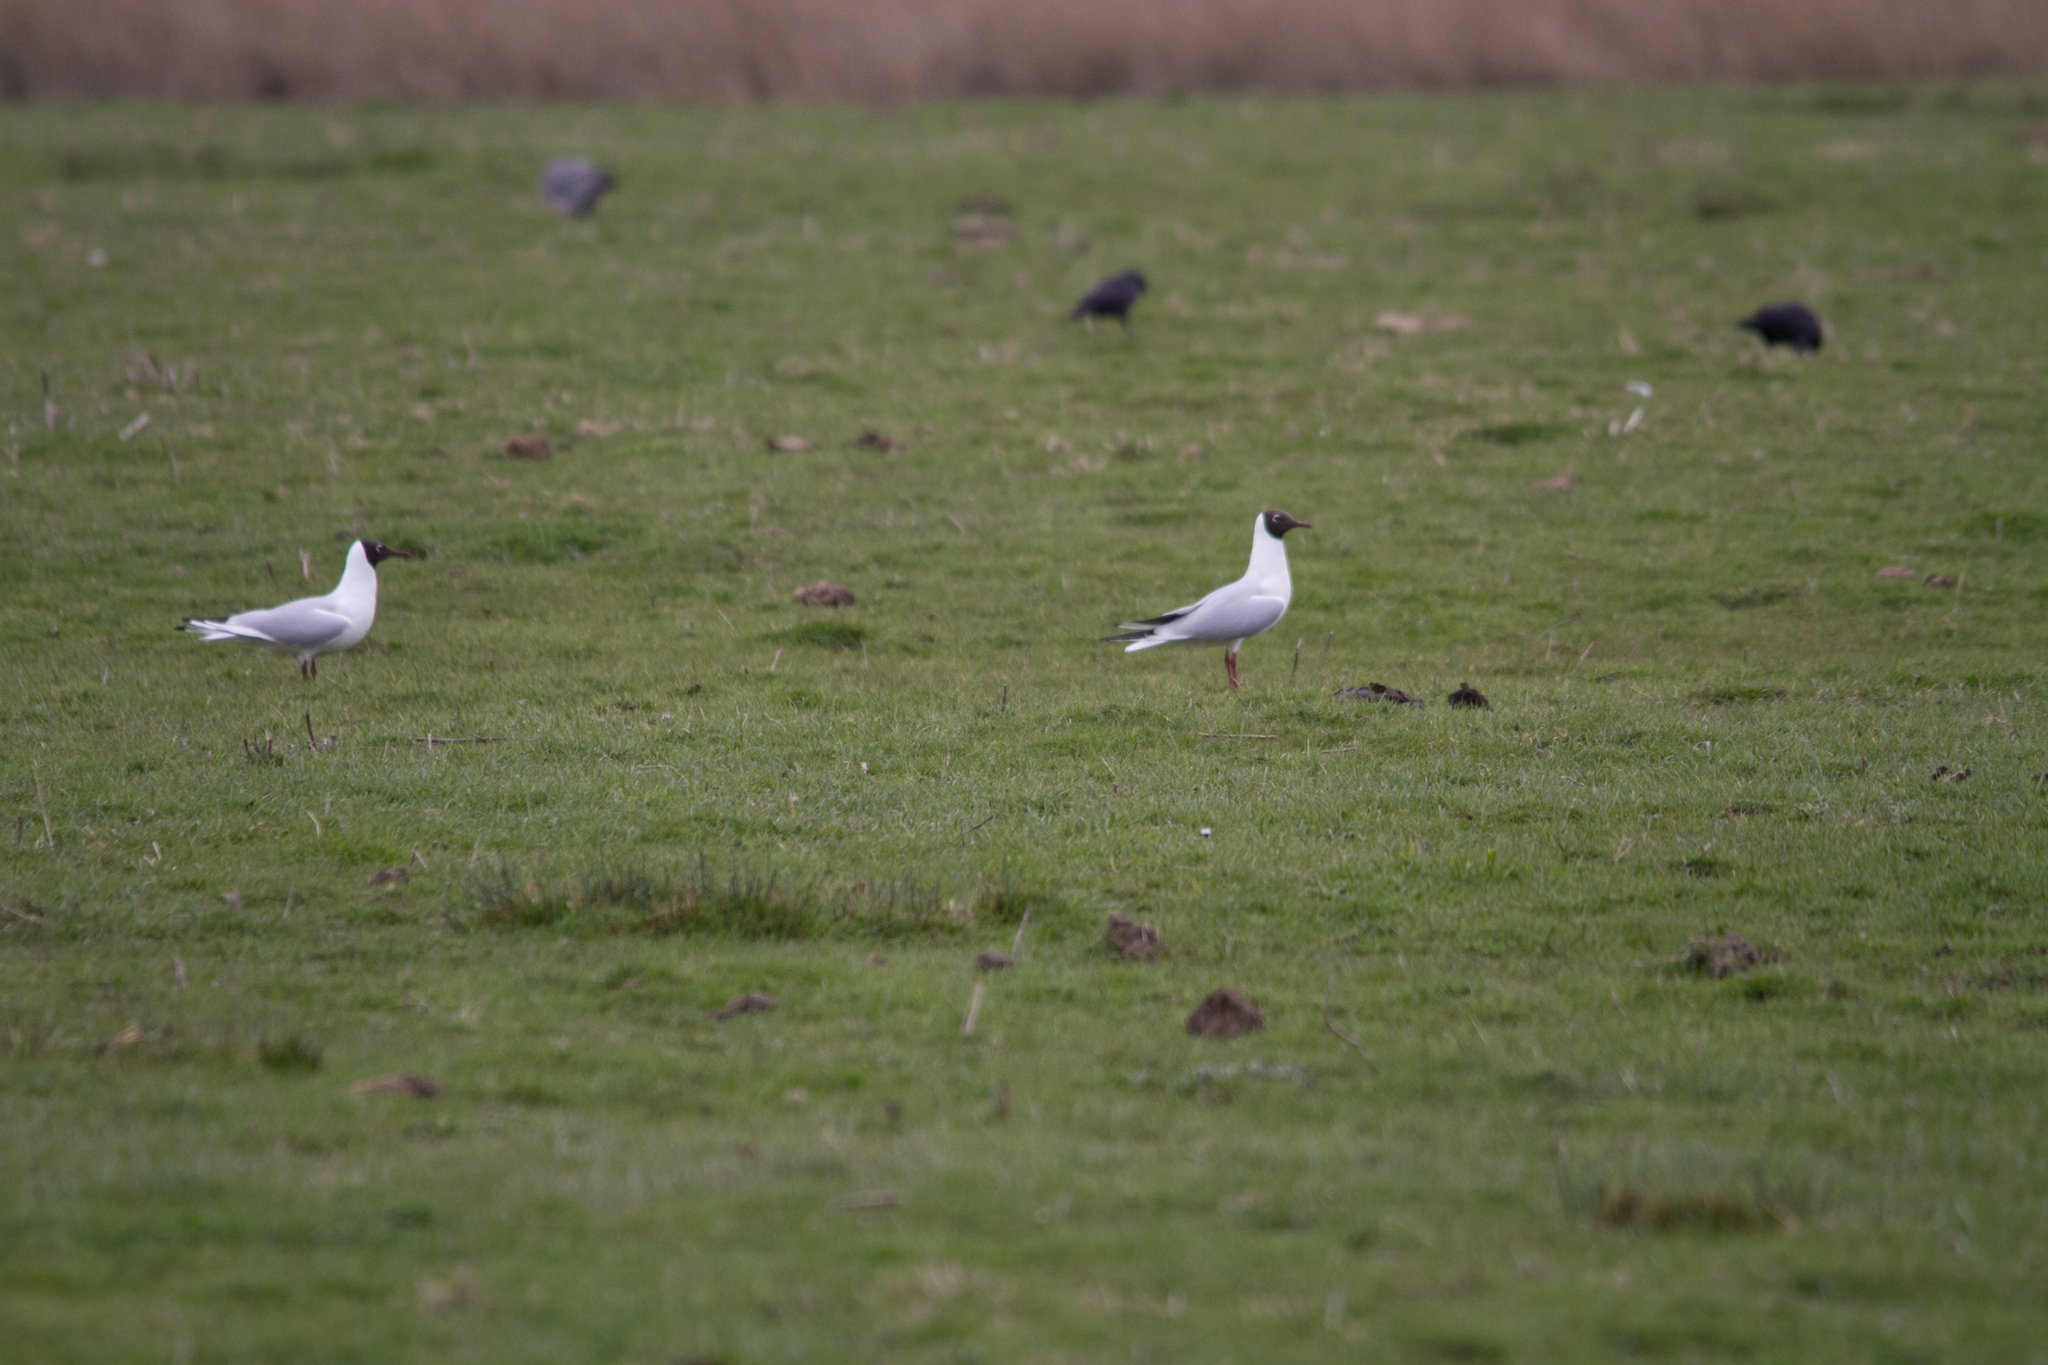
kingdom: Animalia
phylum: Chordata
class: Aves
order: Charadriiformes
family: Laridae
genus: Chroicocephalus
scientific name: Chroicocephalus ridibundus
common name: Black-headed gull
